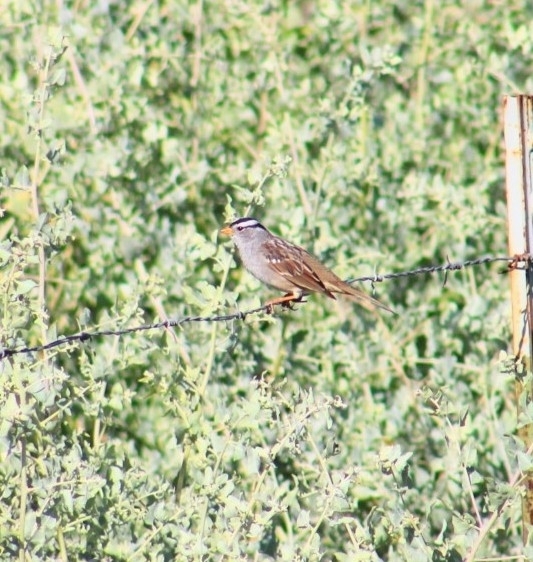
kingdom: Animalia
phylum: Chordata
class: Aves
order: Passeriformes
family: Passerellidae
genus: Zonotrichia
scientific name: Zonotrichia leucophrys
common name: White-crowned sparrow
